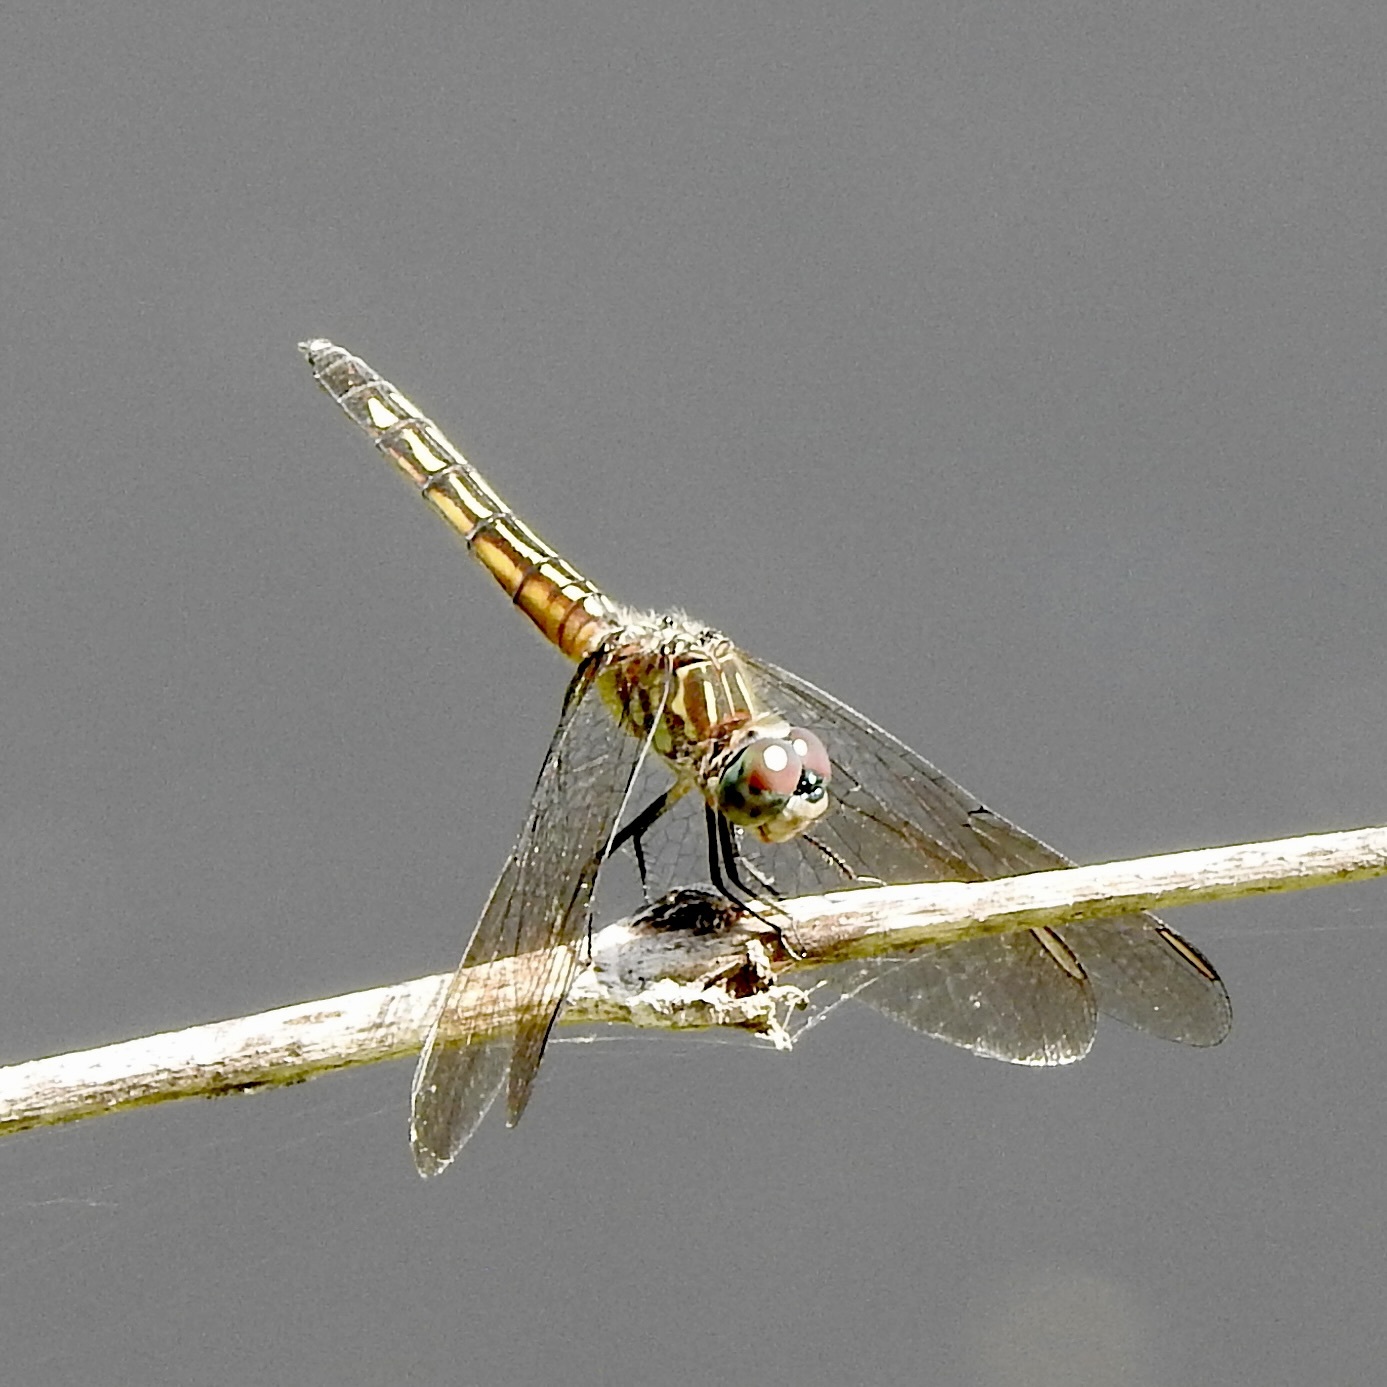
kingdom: Animalia
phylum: Arthropoda
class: Insecta
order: Odonata
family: Libellulidae
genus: Pachydiplax
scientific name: Pachydiplax longipennis
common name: Blue dasher
